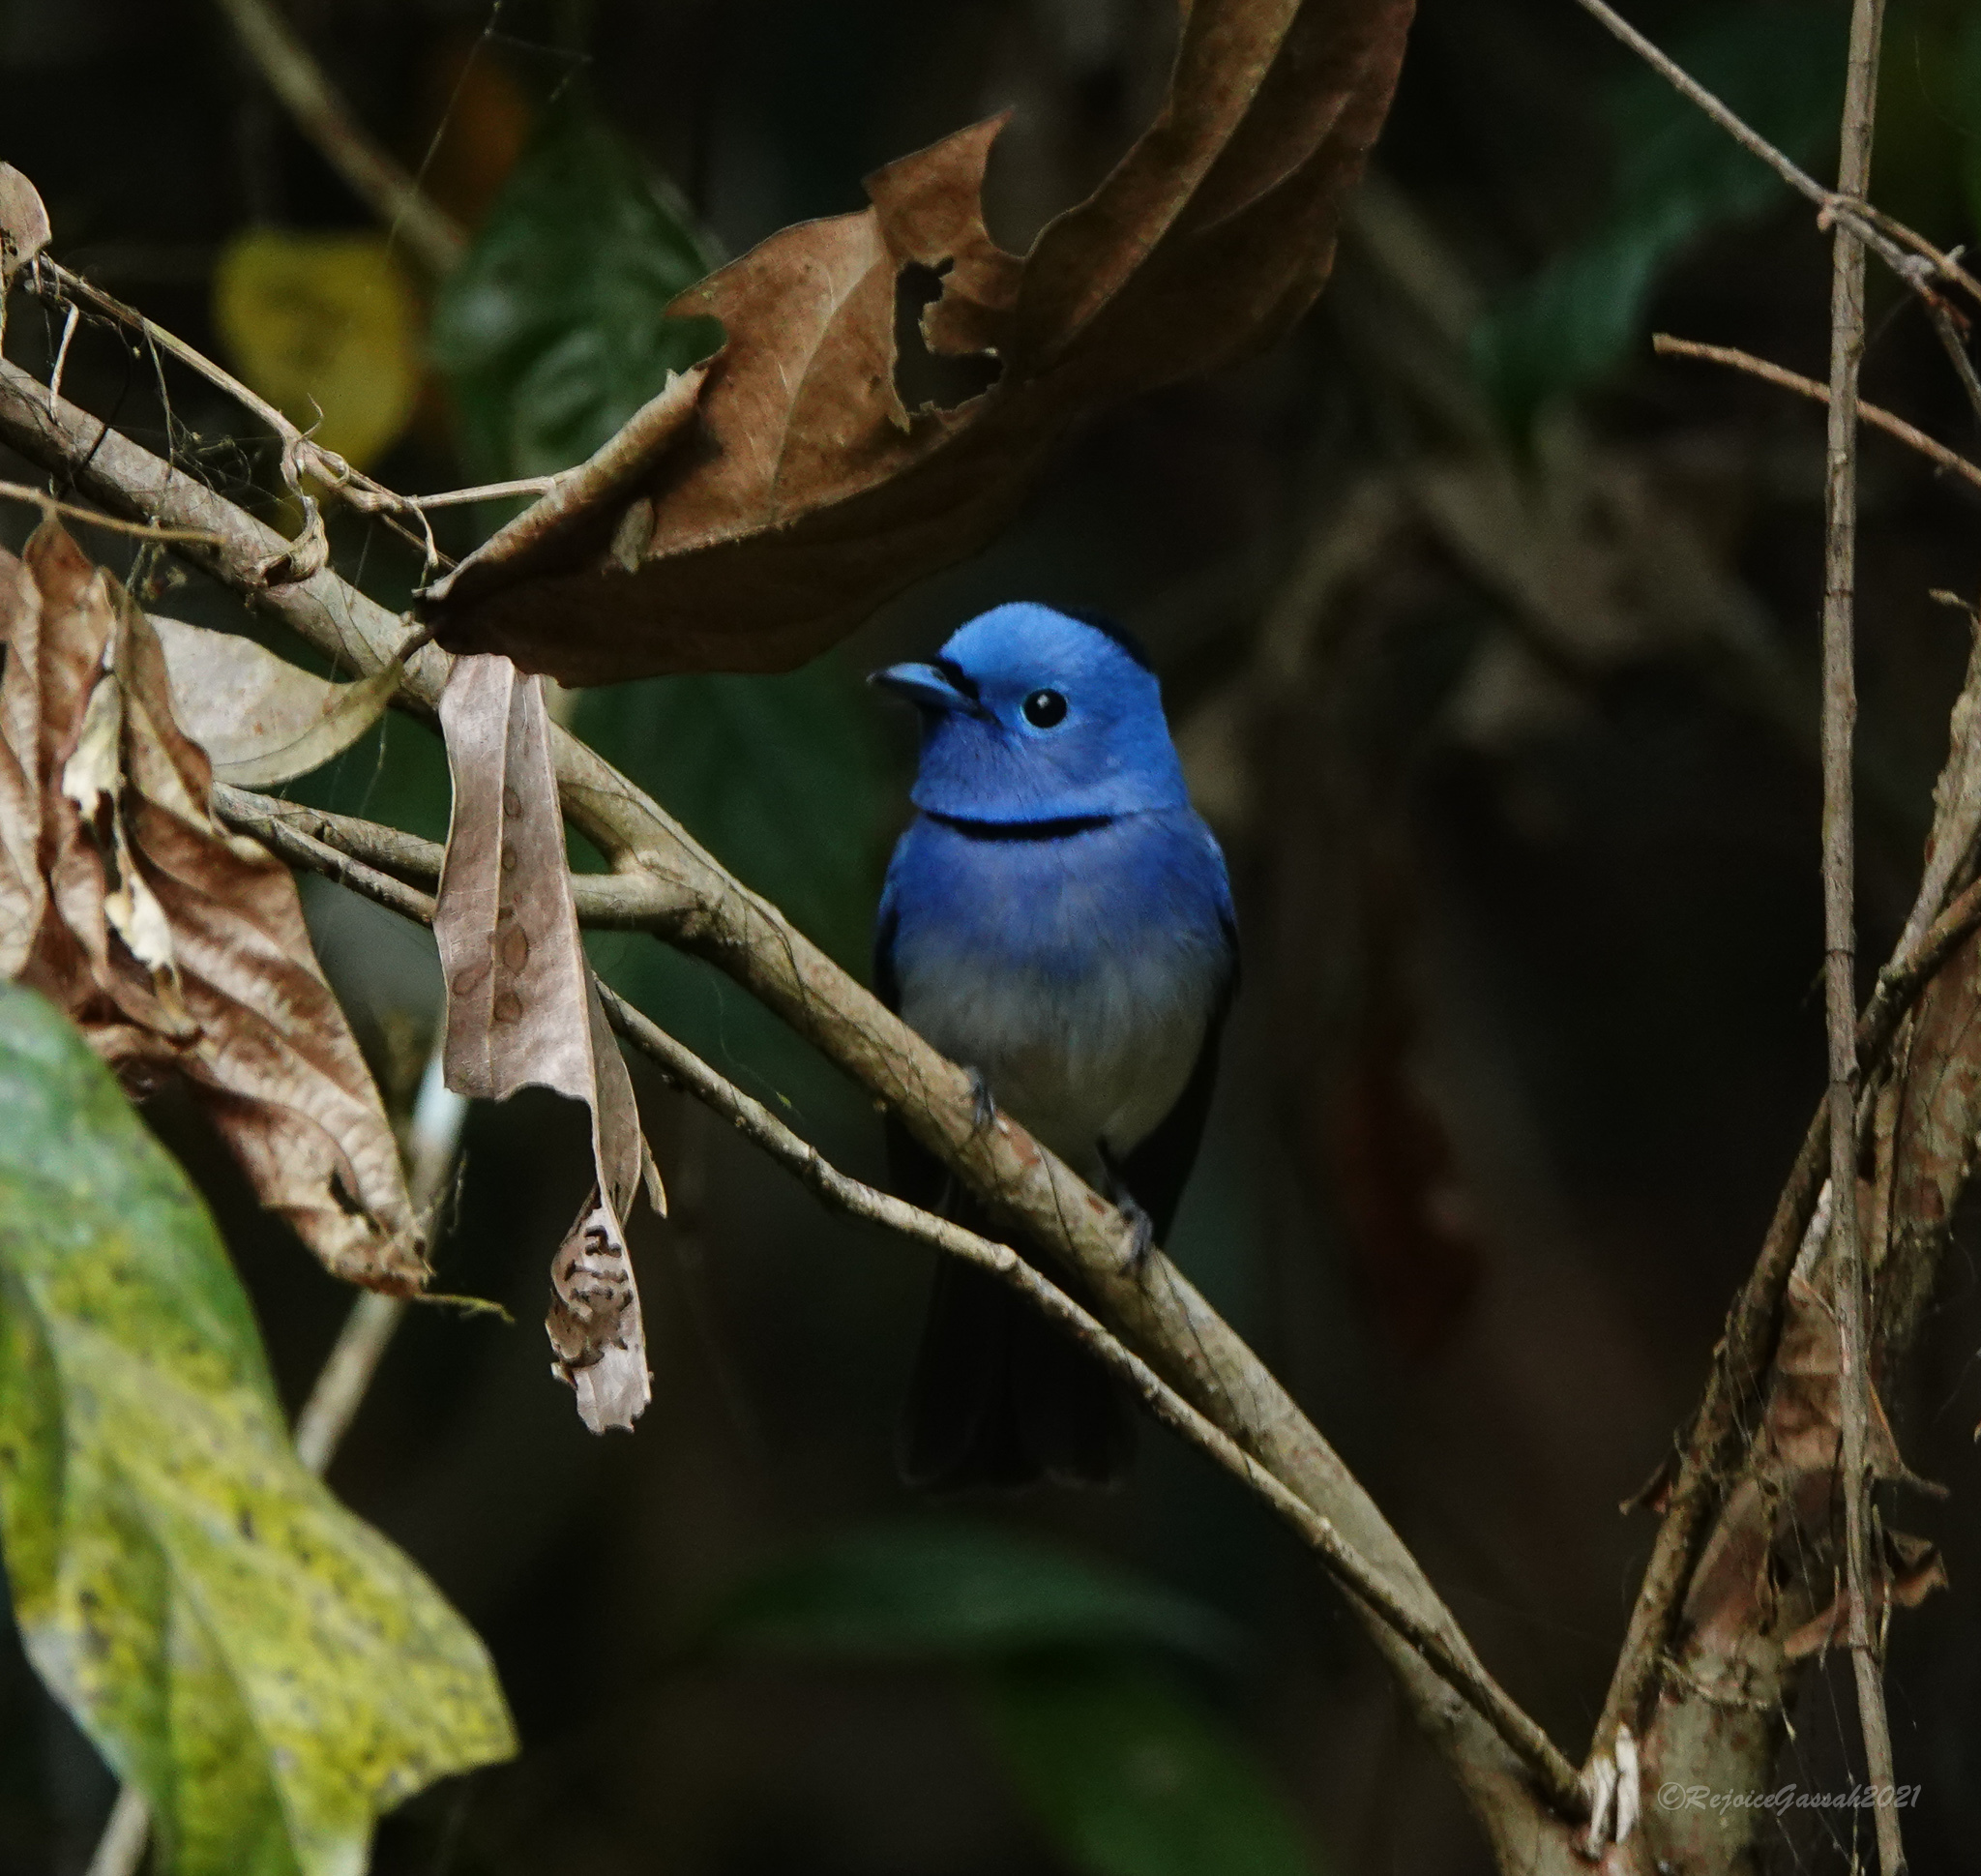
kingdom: Animalia
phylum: Chordata
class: Aves
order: Passeriformes
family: Monarchidae
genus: Hypothymis
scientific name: Hypothymis azurea
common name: Black-naped monarch
